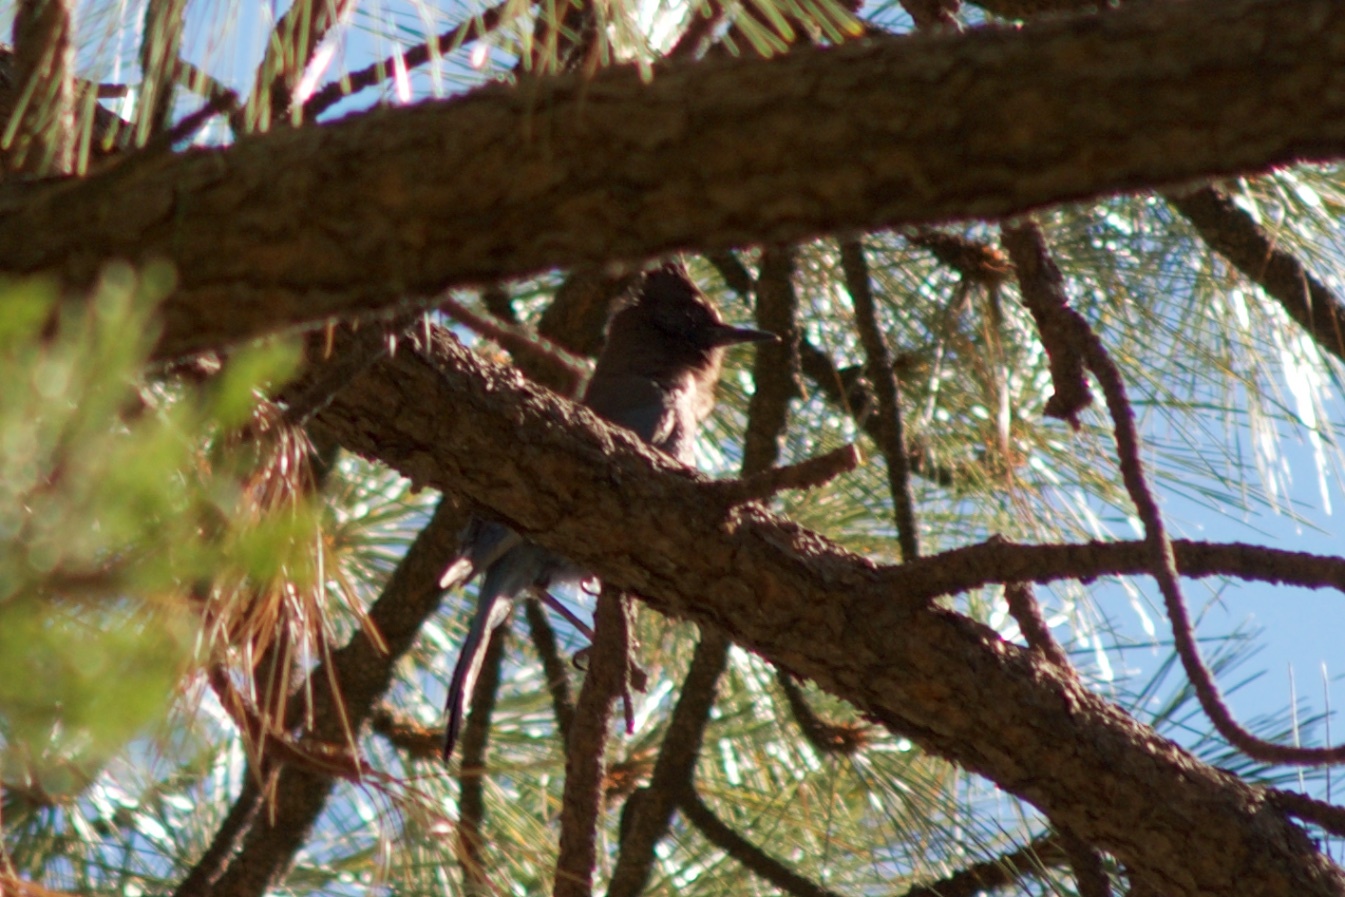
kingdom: Animalia
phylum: Chordata
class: Aves
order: Passeriformes
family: Corvidae
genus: Cyanocitta
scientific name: Cyanocitta stelleri
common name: Steller's jay
